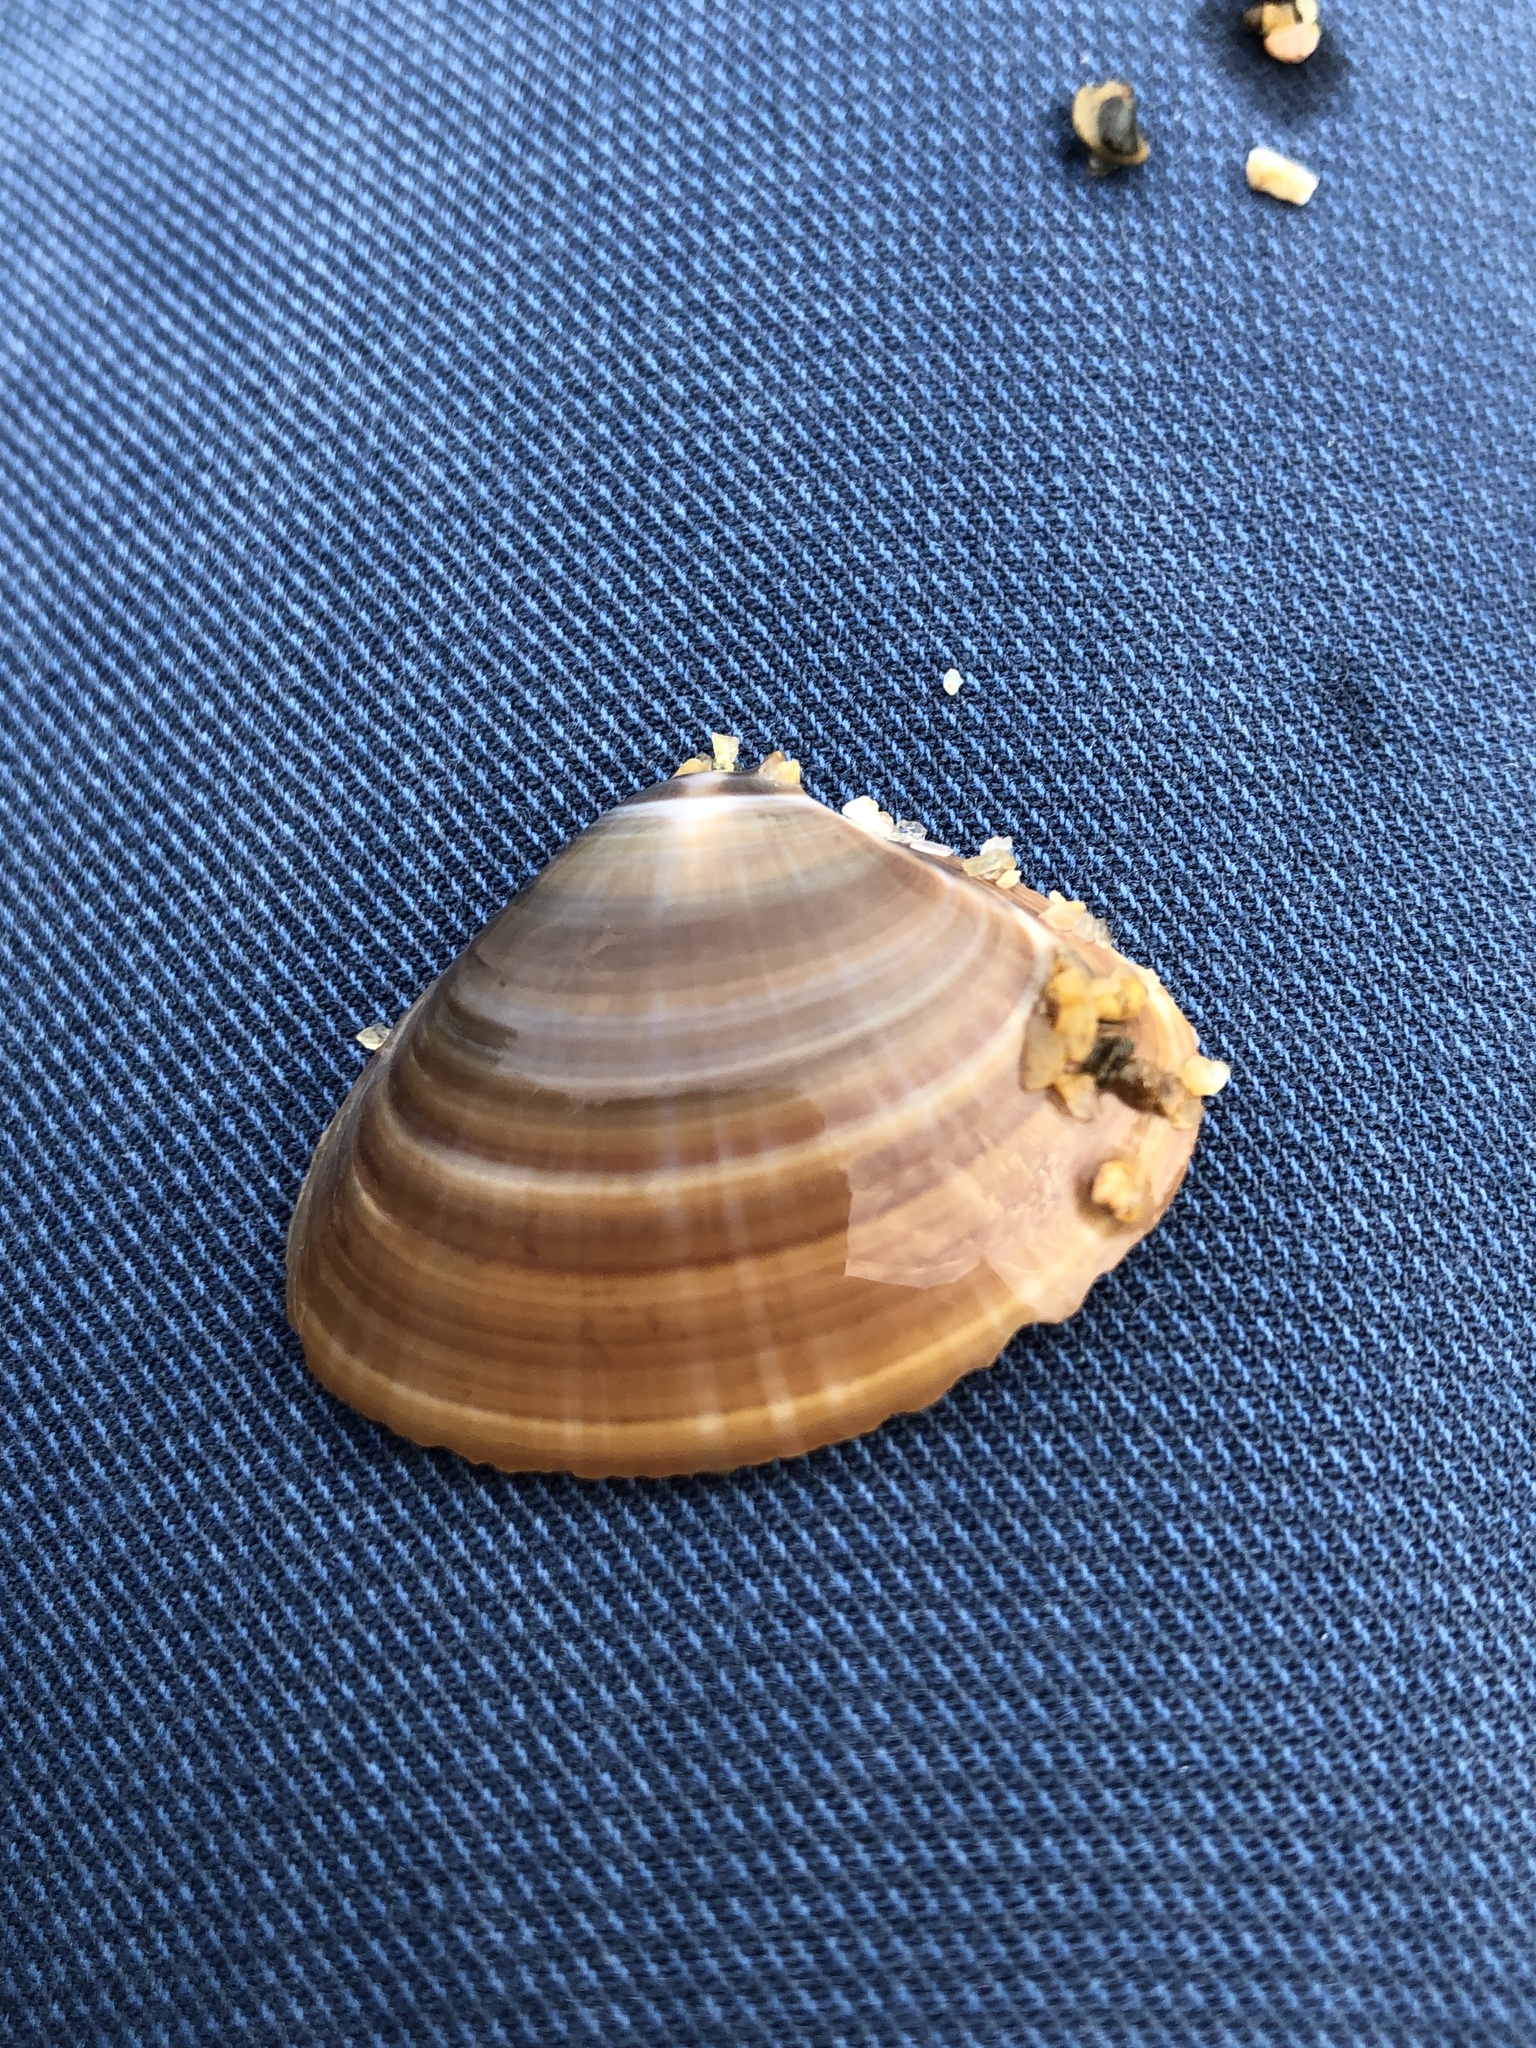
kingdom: Animalia
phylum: Mollusca
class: Bivalvia
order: Venerida
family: Mactridae
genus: Mactra
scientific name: Mactra chinensis
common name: Chinese surf clam
